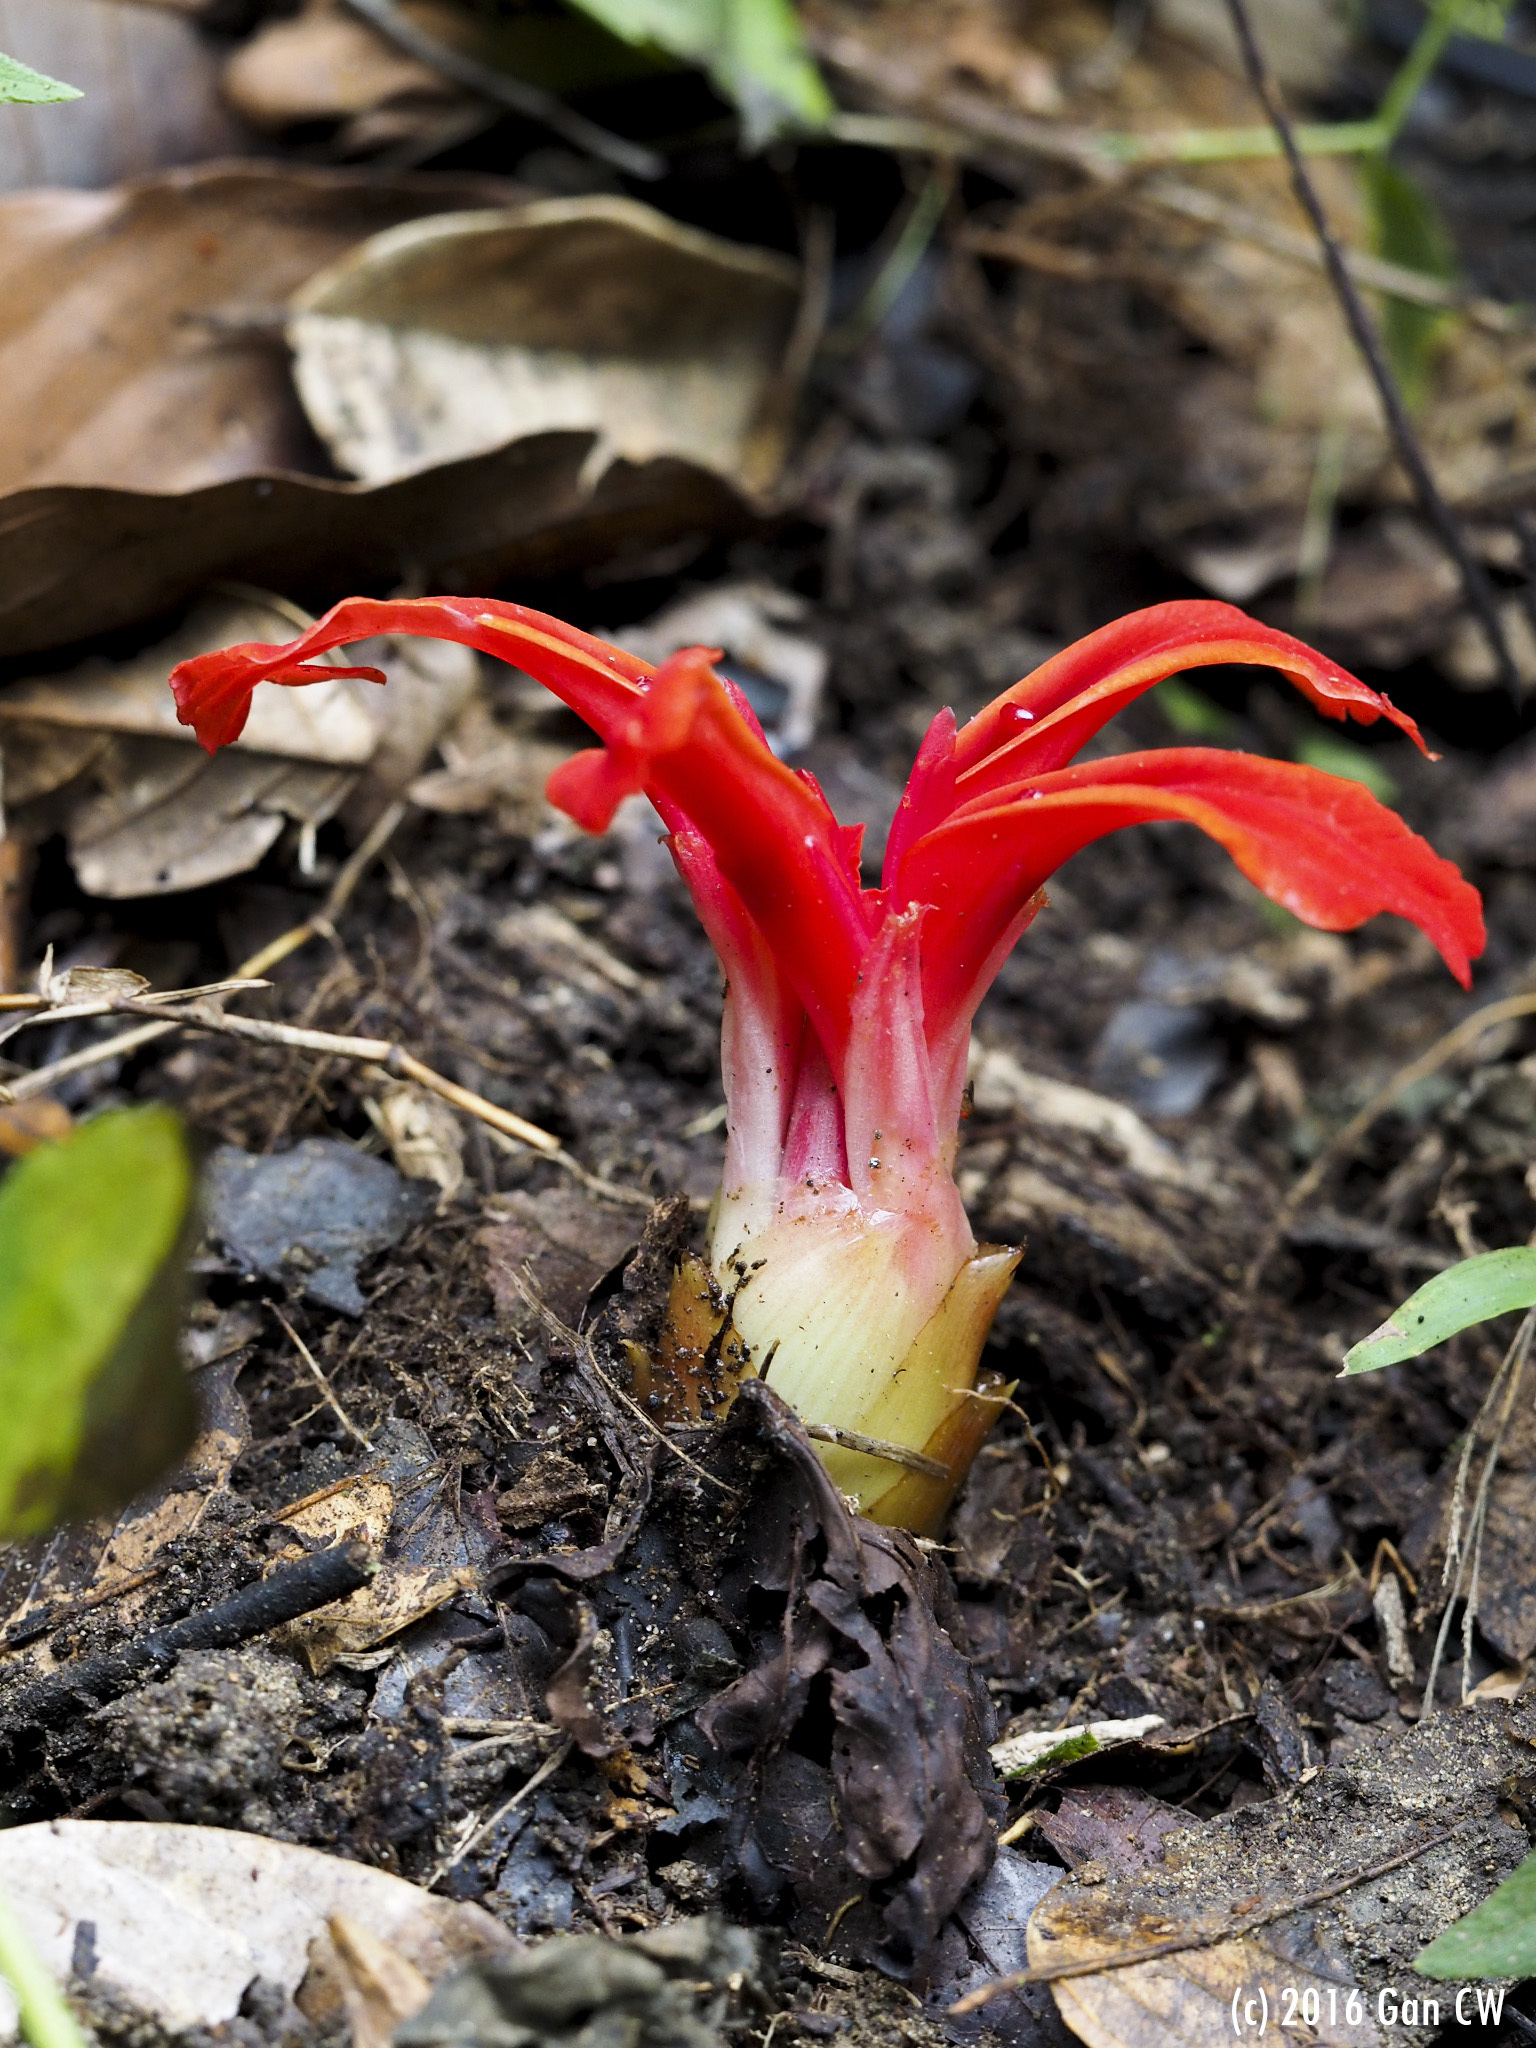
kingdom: Plantae
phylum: Tracheophyta
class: Liliopsida
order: Zingiberales
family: Zingiberaceae
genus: Etlingera
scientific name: Etlingera megalocheilos
